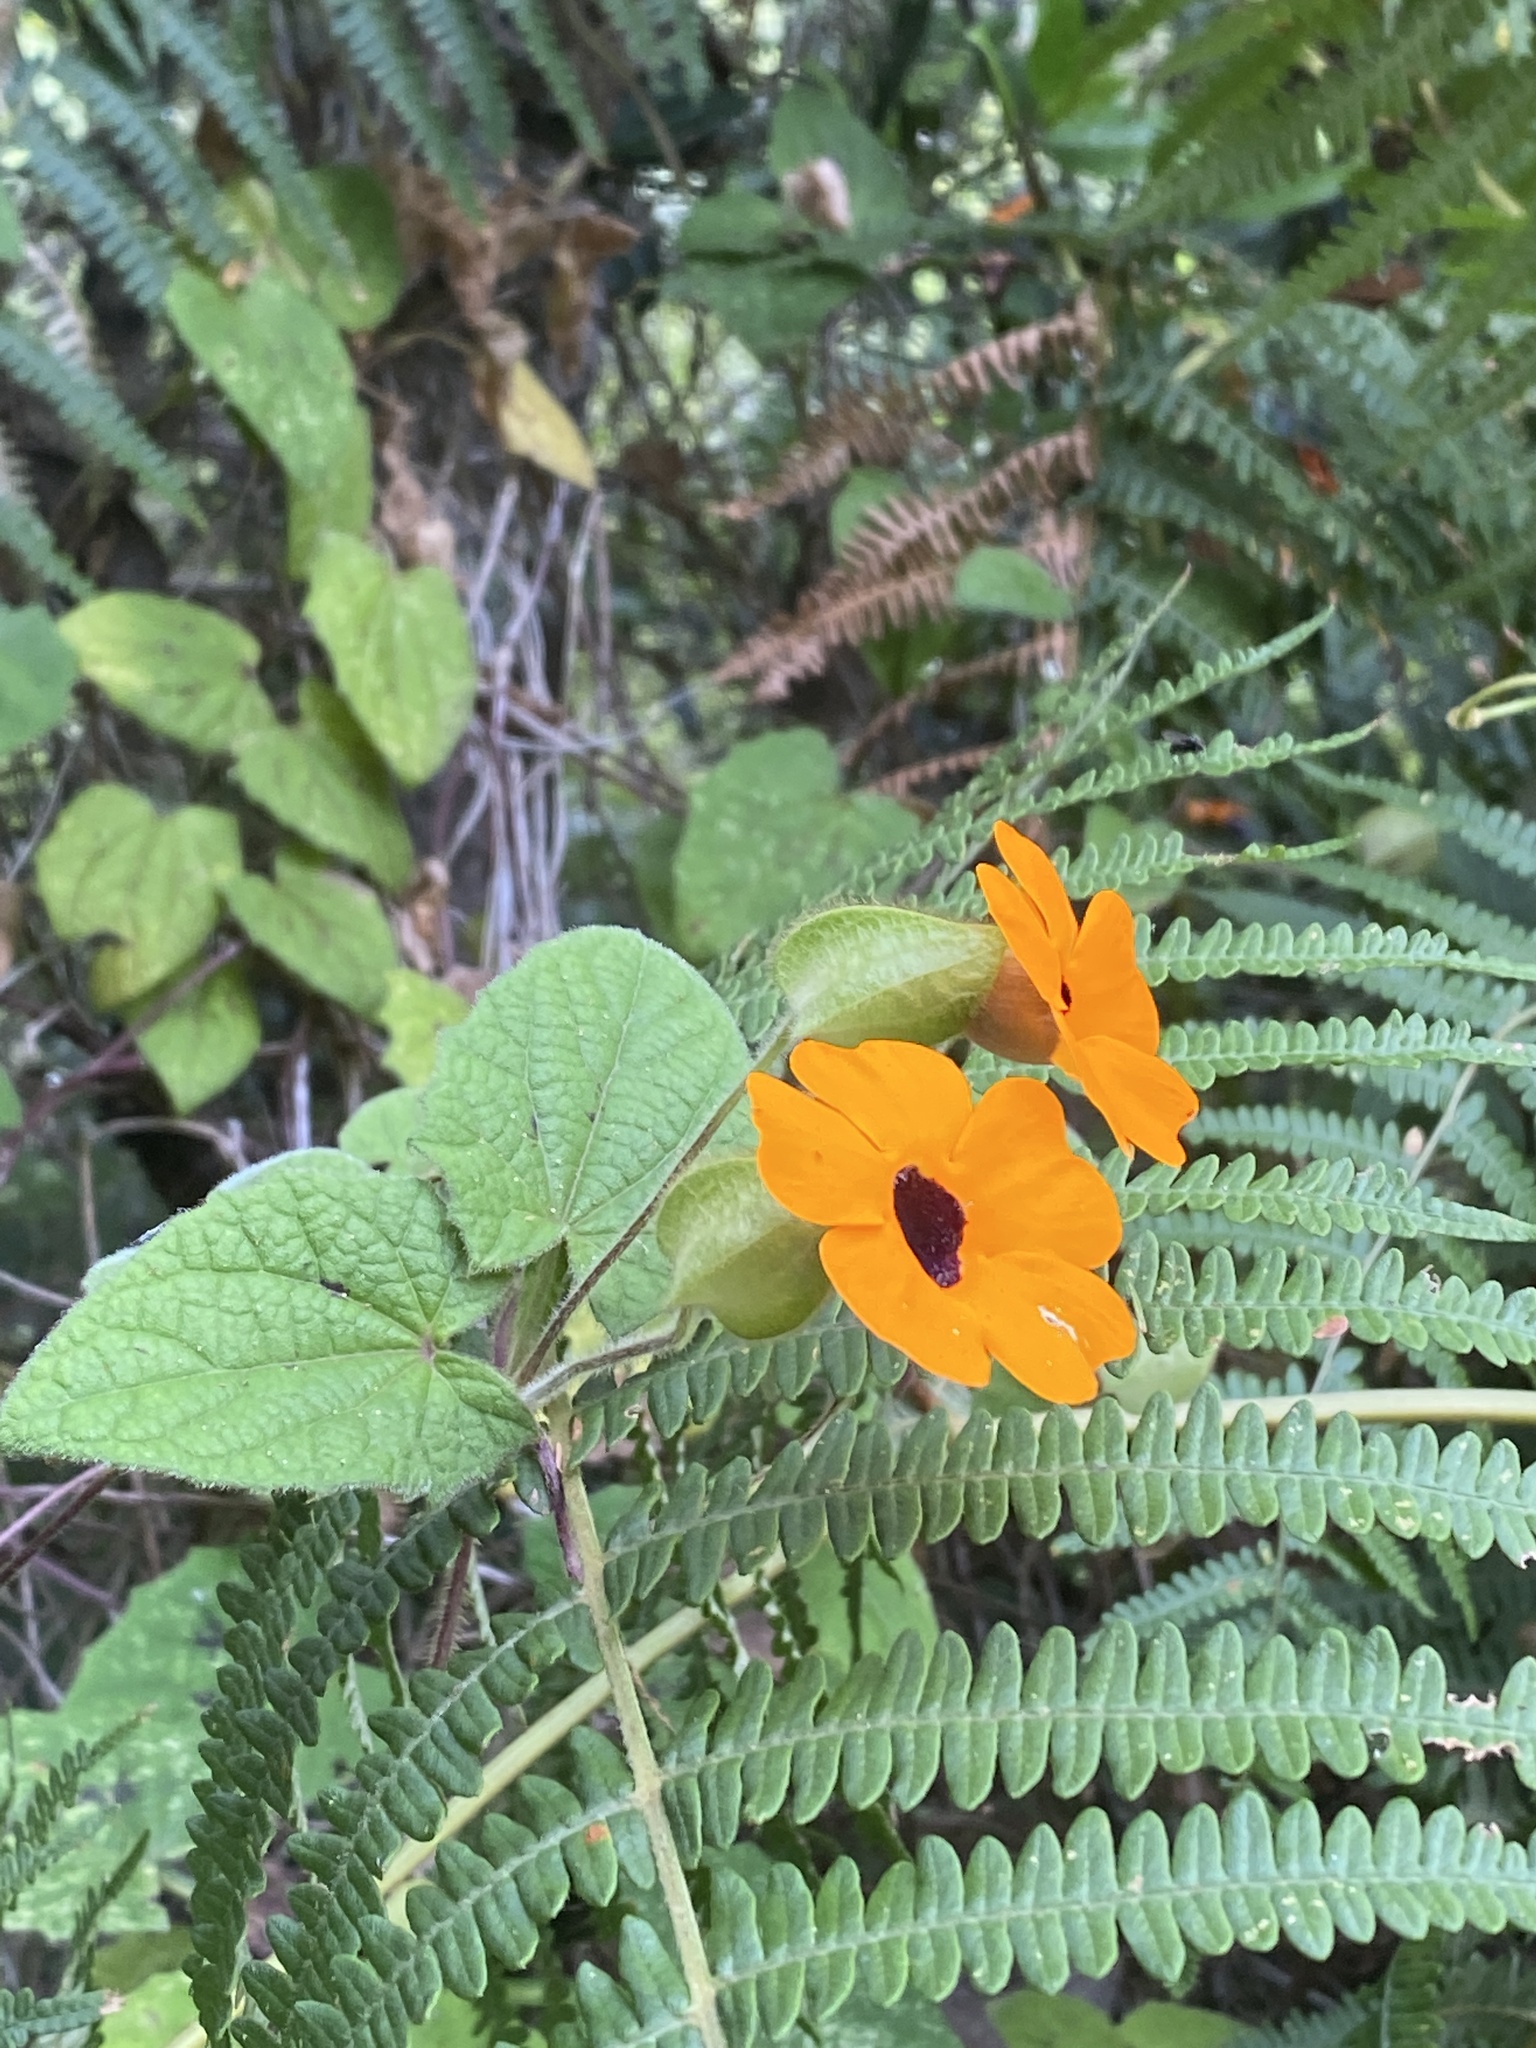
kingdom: Plantae
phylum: Tracheophyta
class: Magnoliopsida
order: Lamiales
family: Acanthaceae
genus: Thunbergia
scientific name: Thunbergia alata
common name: Blackeyed susan vine
